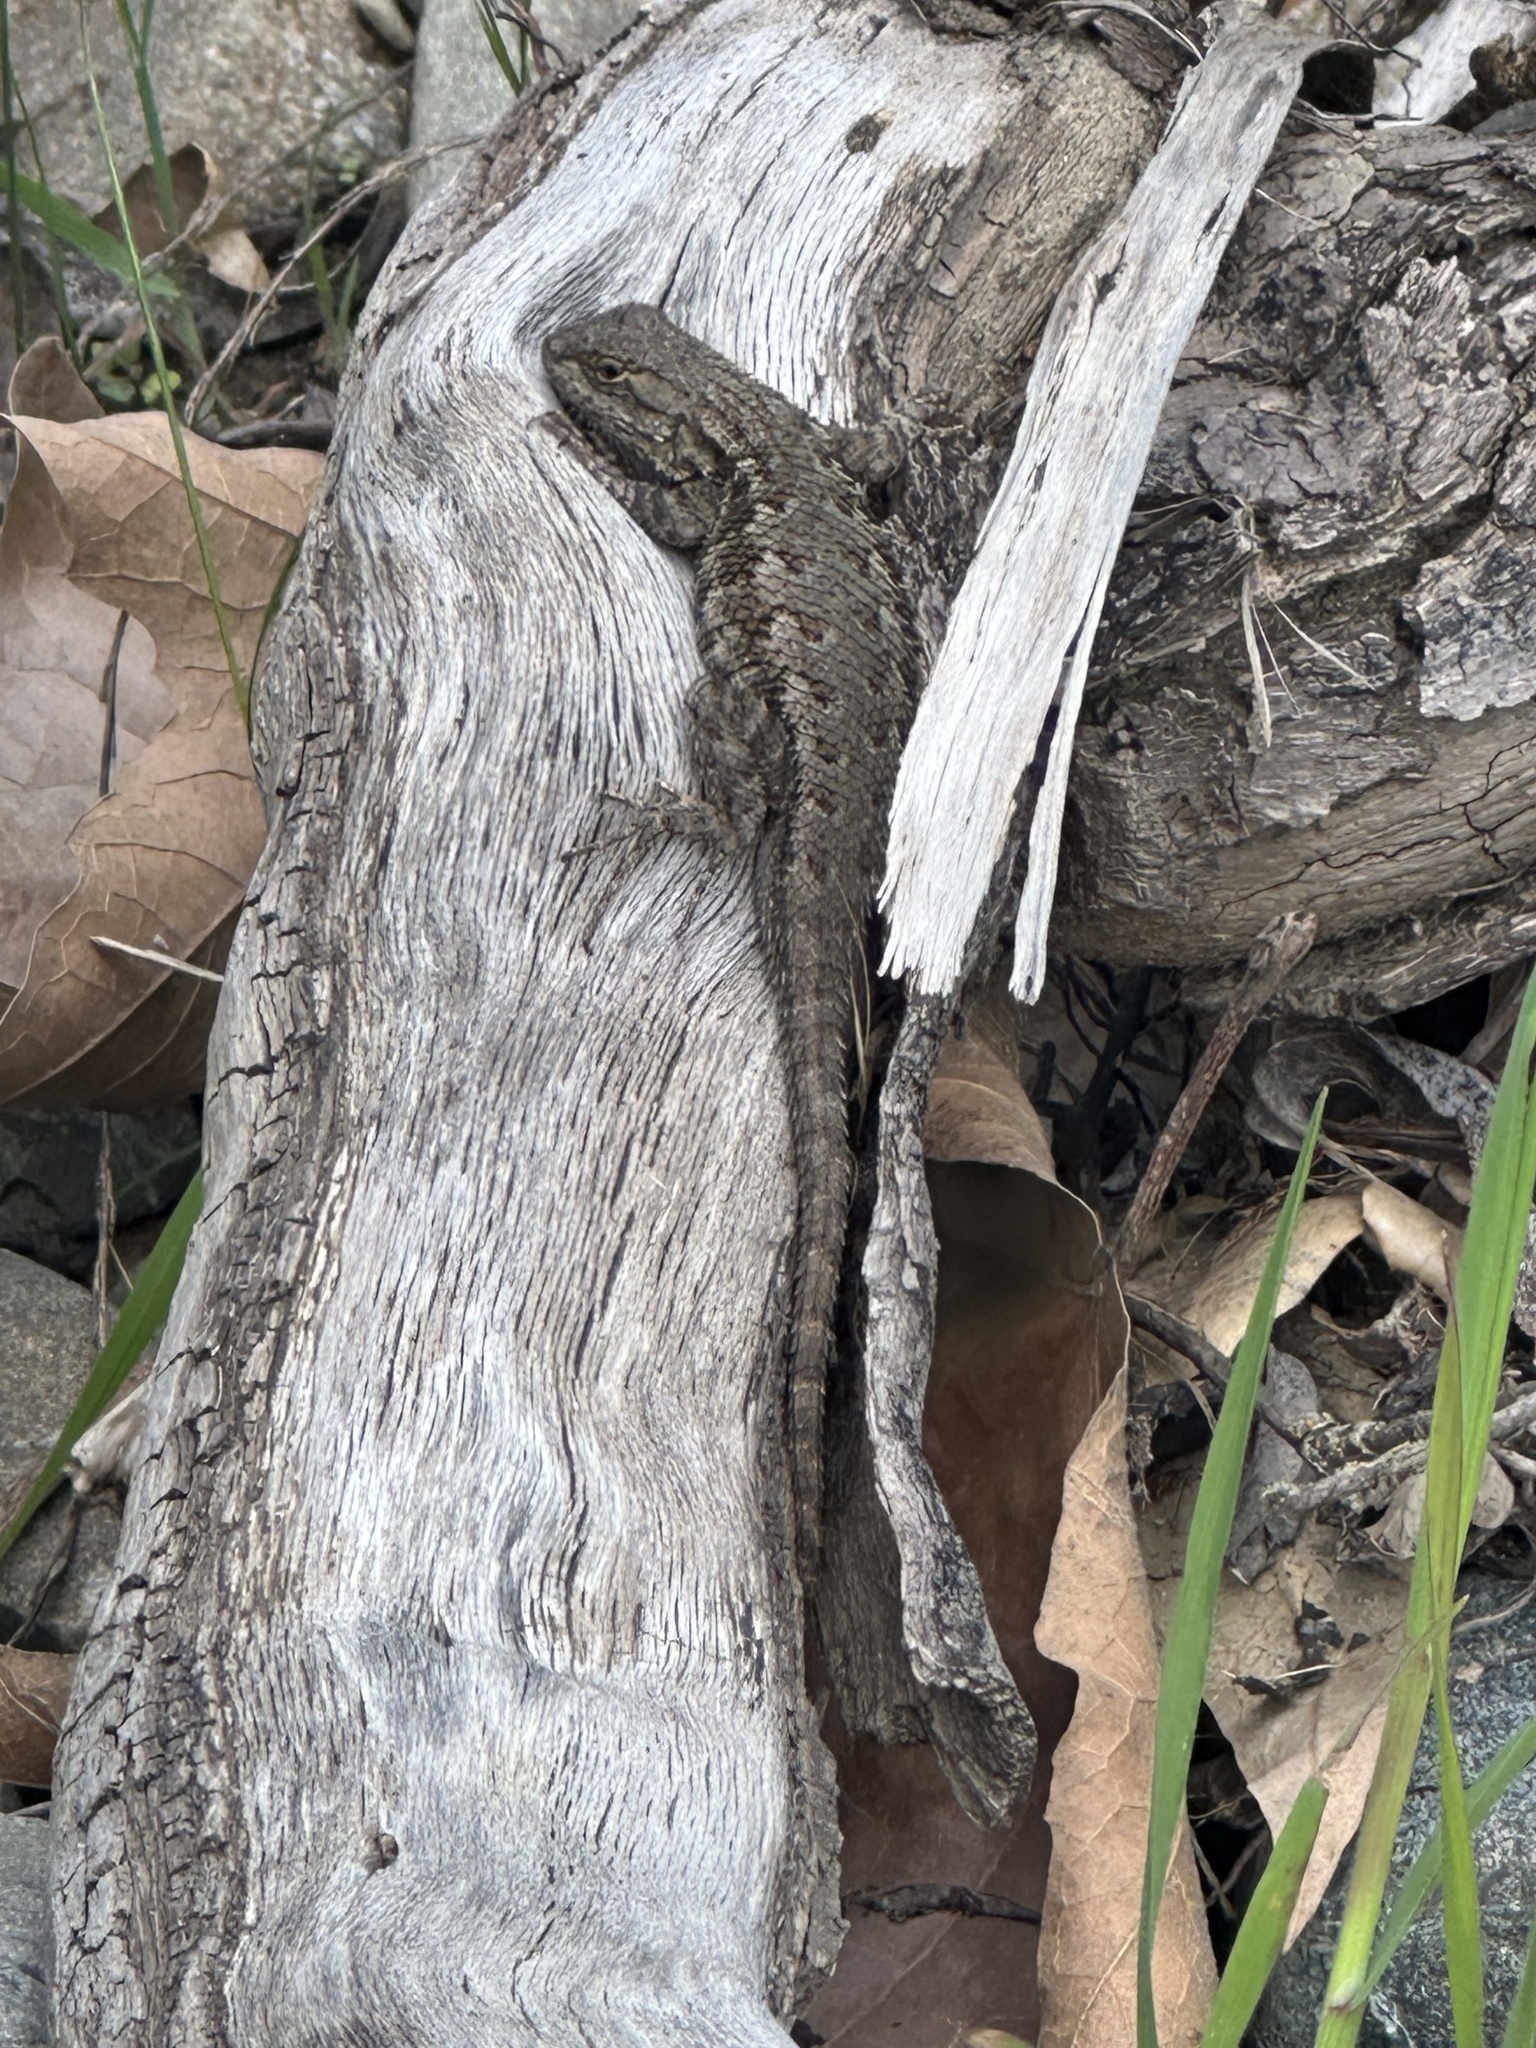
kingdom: Animalia
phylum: Chordata
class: Squamata
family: Phrynosomatidae
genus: Sceloporus
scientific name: Sceloporus occidentalis
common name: Western fence lizard
